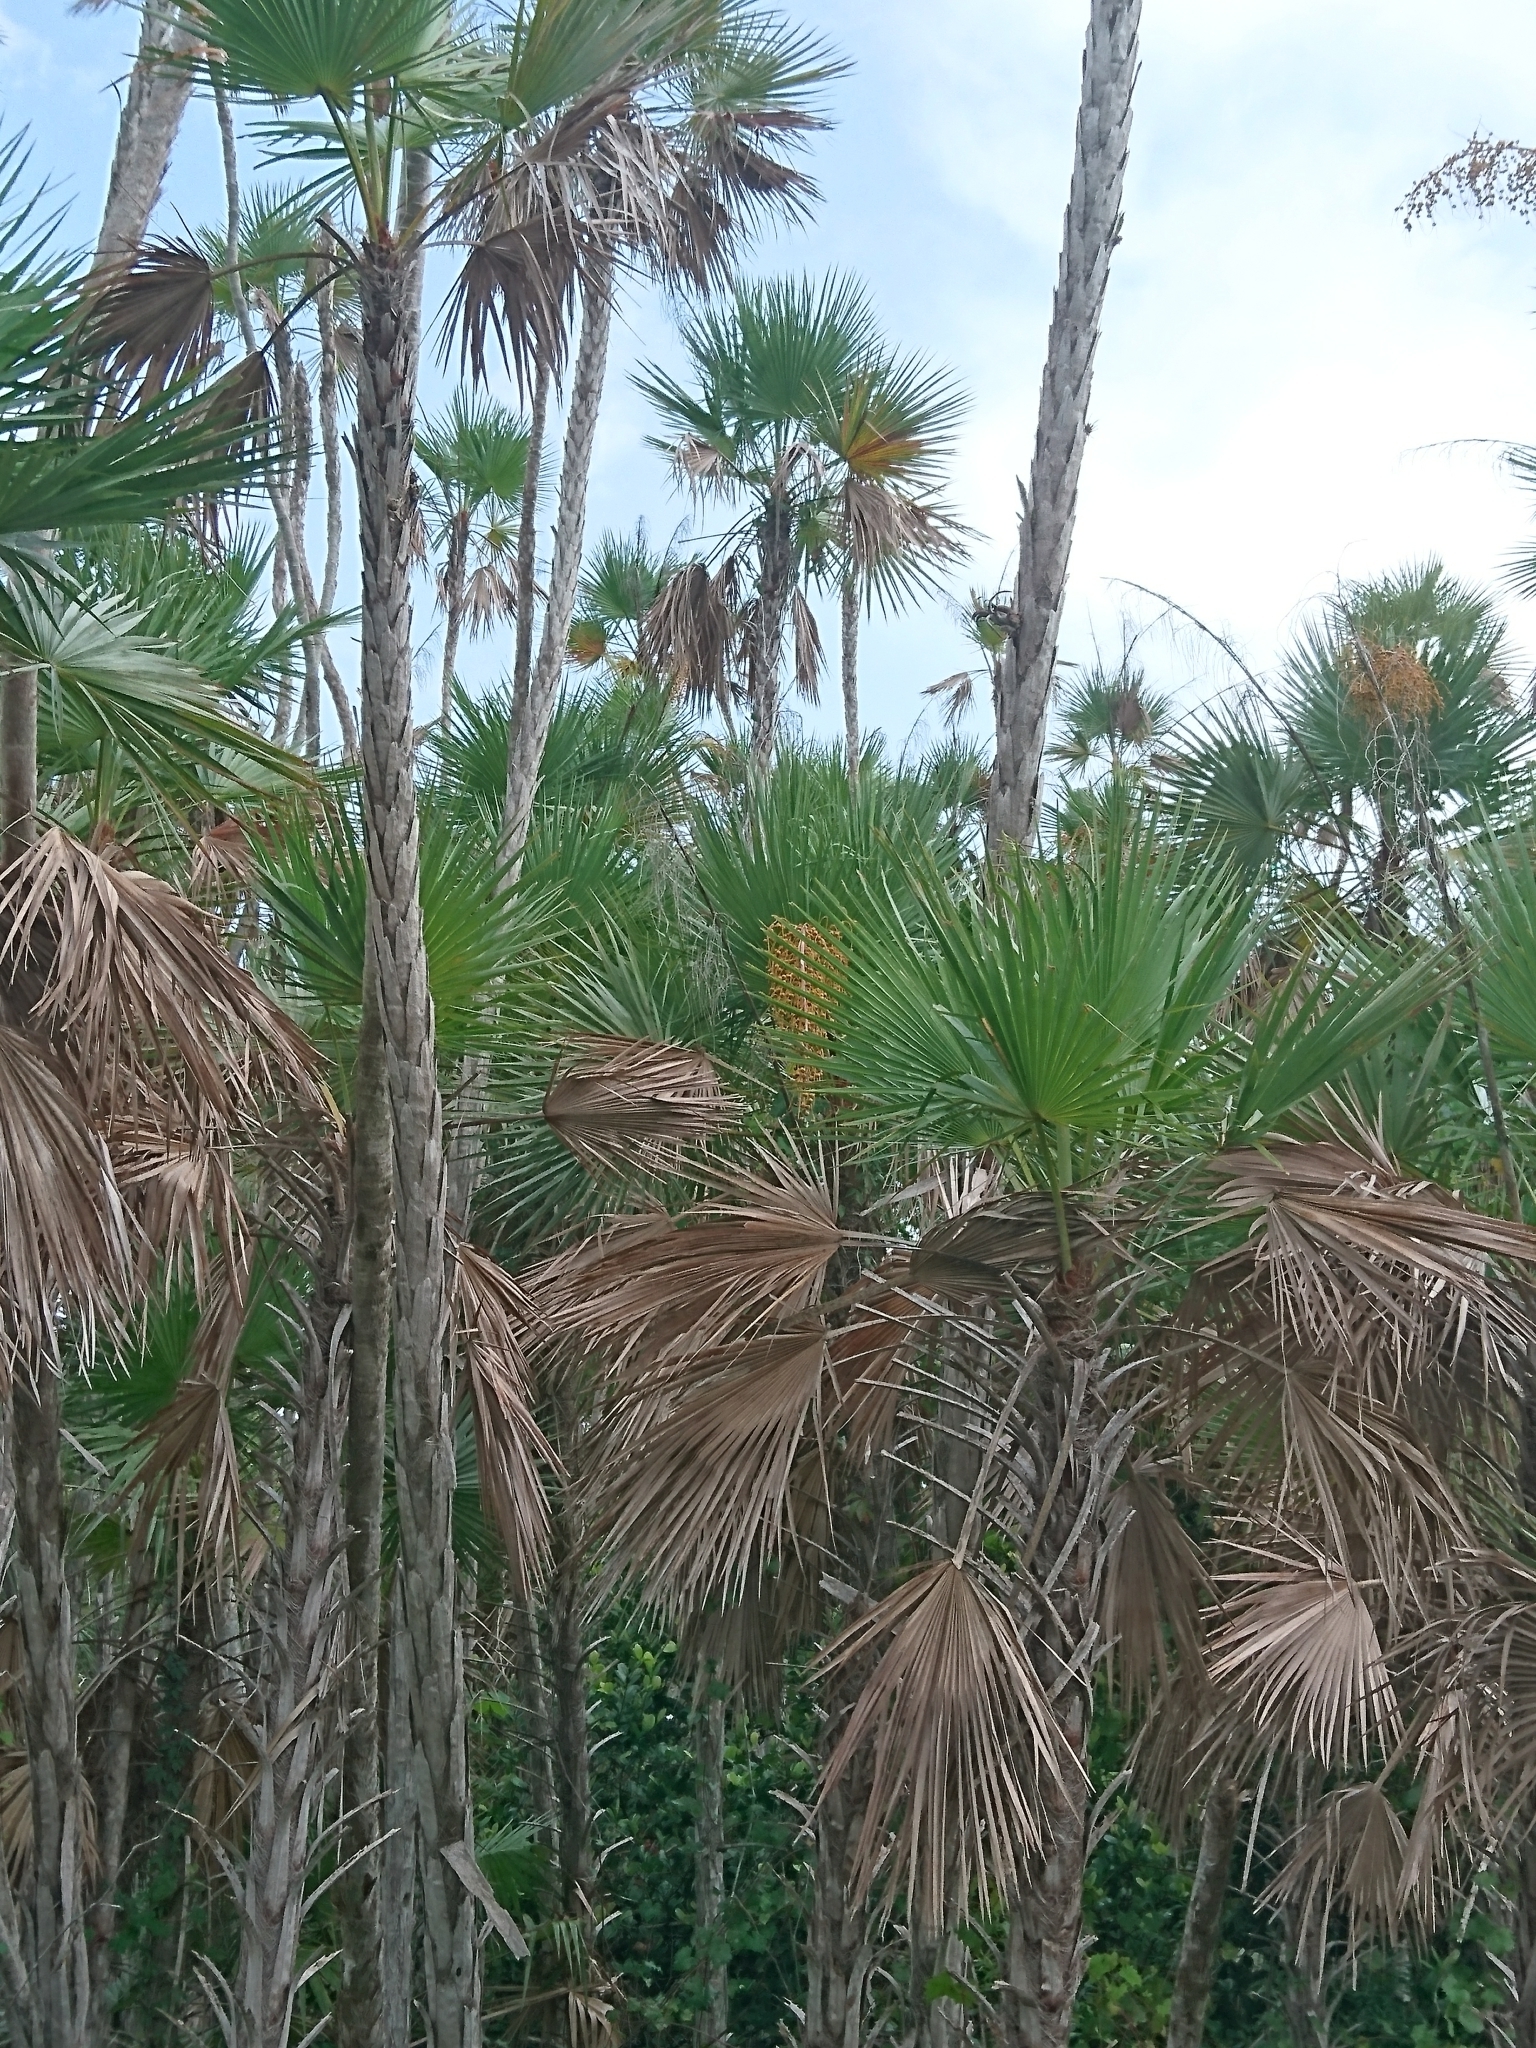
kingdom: Plantae
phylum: Tracheophyta
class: Liliopsida
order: Arecales
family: Arecaceae
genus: Acoelorraphe
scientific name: Acoelorraphe wrightii
